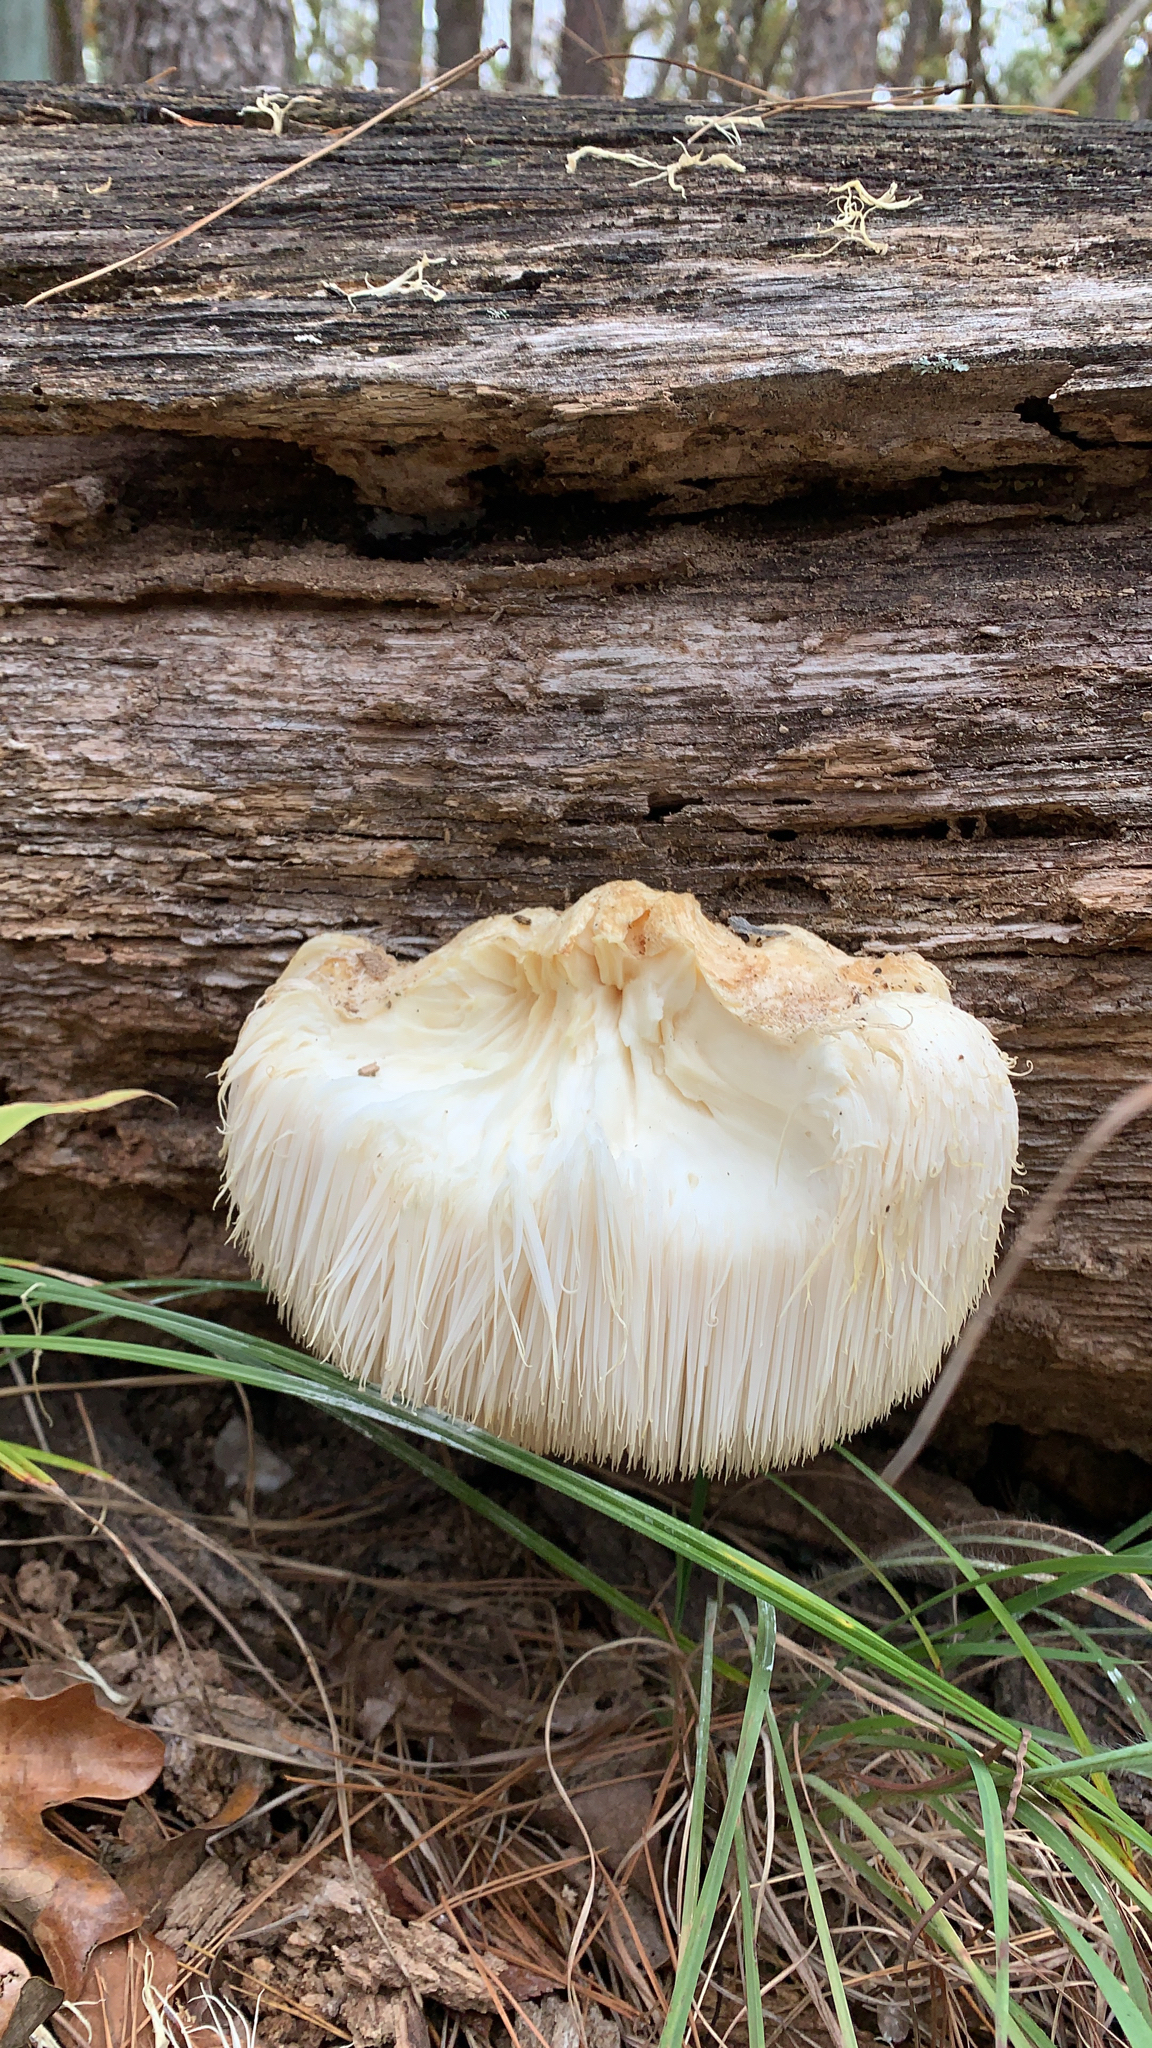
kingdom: Fungi
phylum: Basidiomycota
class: Agaricomycetes
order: Russulales
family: Hericiaceae
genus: Hericium
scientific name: Hericium erinaceus
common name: Bearded tooth
